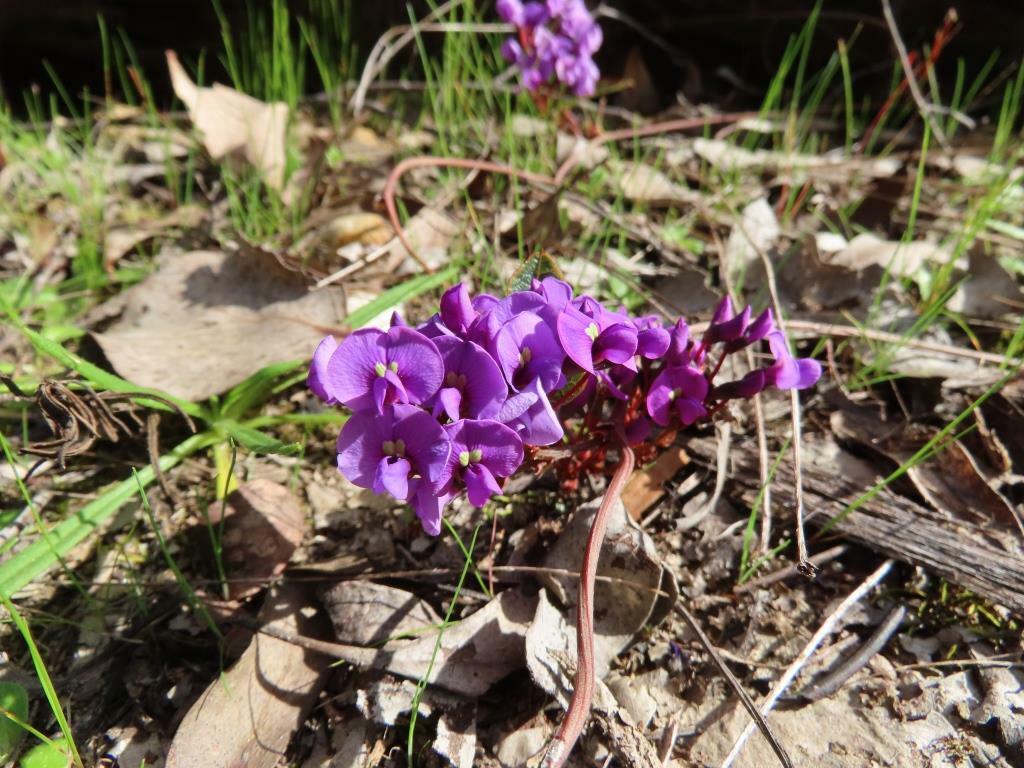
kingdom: Plantae
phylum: Tracheophyta
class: Magnoliopsida
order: Fabales
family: Fabaceae
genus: Hardenbergia
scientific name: Hardenbergia violacea
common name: Coral-pea
